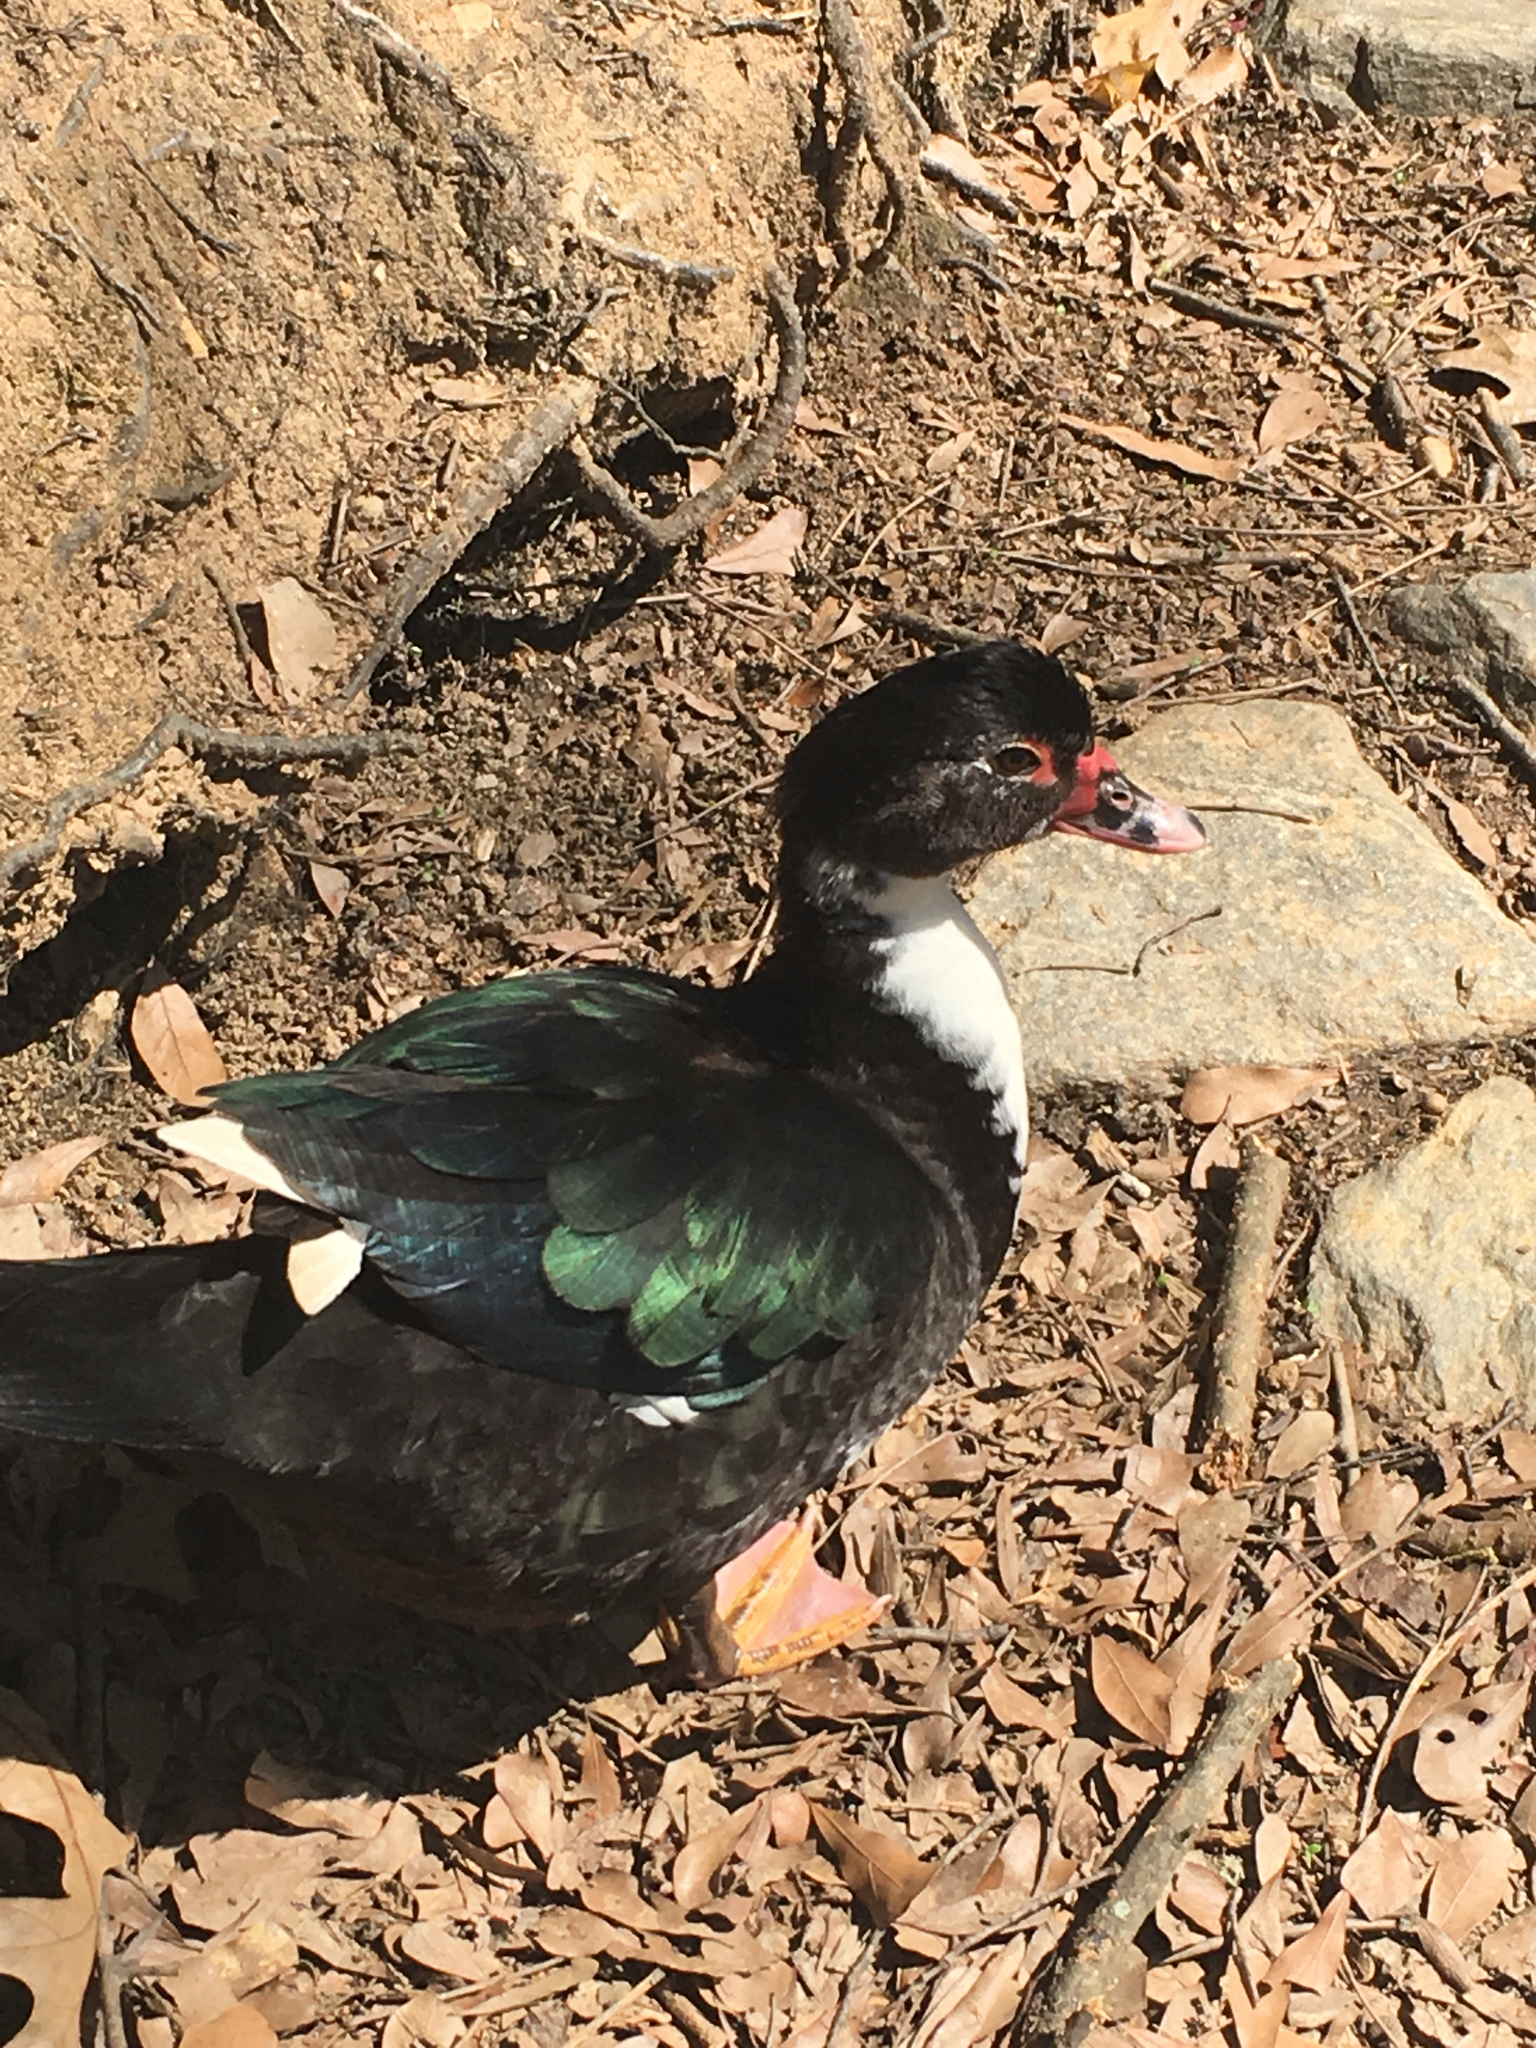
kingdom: Animalia
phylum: Chordata
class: Aves
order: Anseriformes
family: Anatidae
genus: Cairina
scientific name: Cairina moschata
